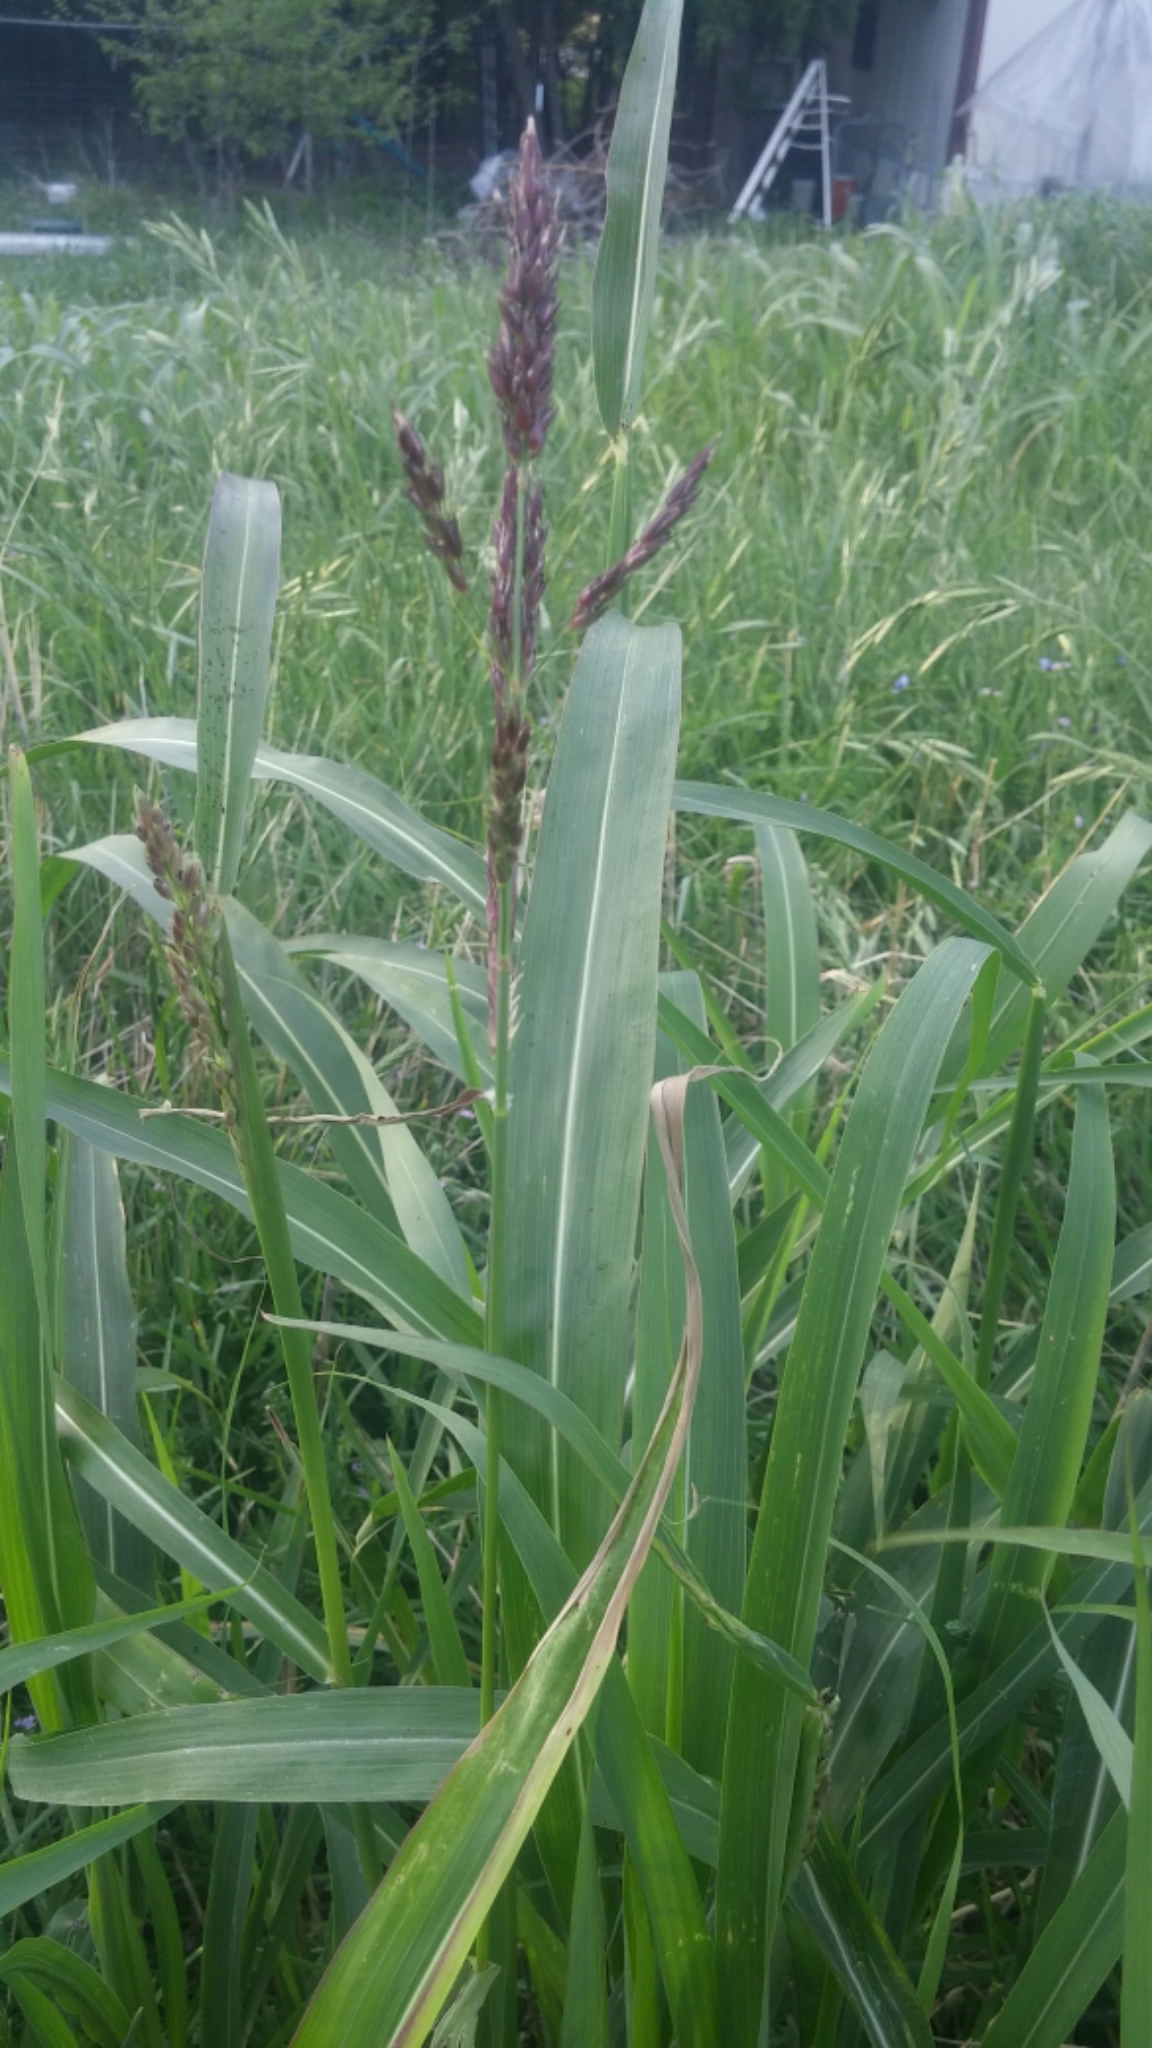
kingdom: Plantae
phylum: Tracheophyta
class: Liliopsida
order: Poales
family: Poaceae
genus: Sorghum
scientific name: Sorghum halepense
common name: Johnson-grass
